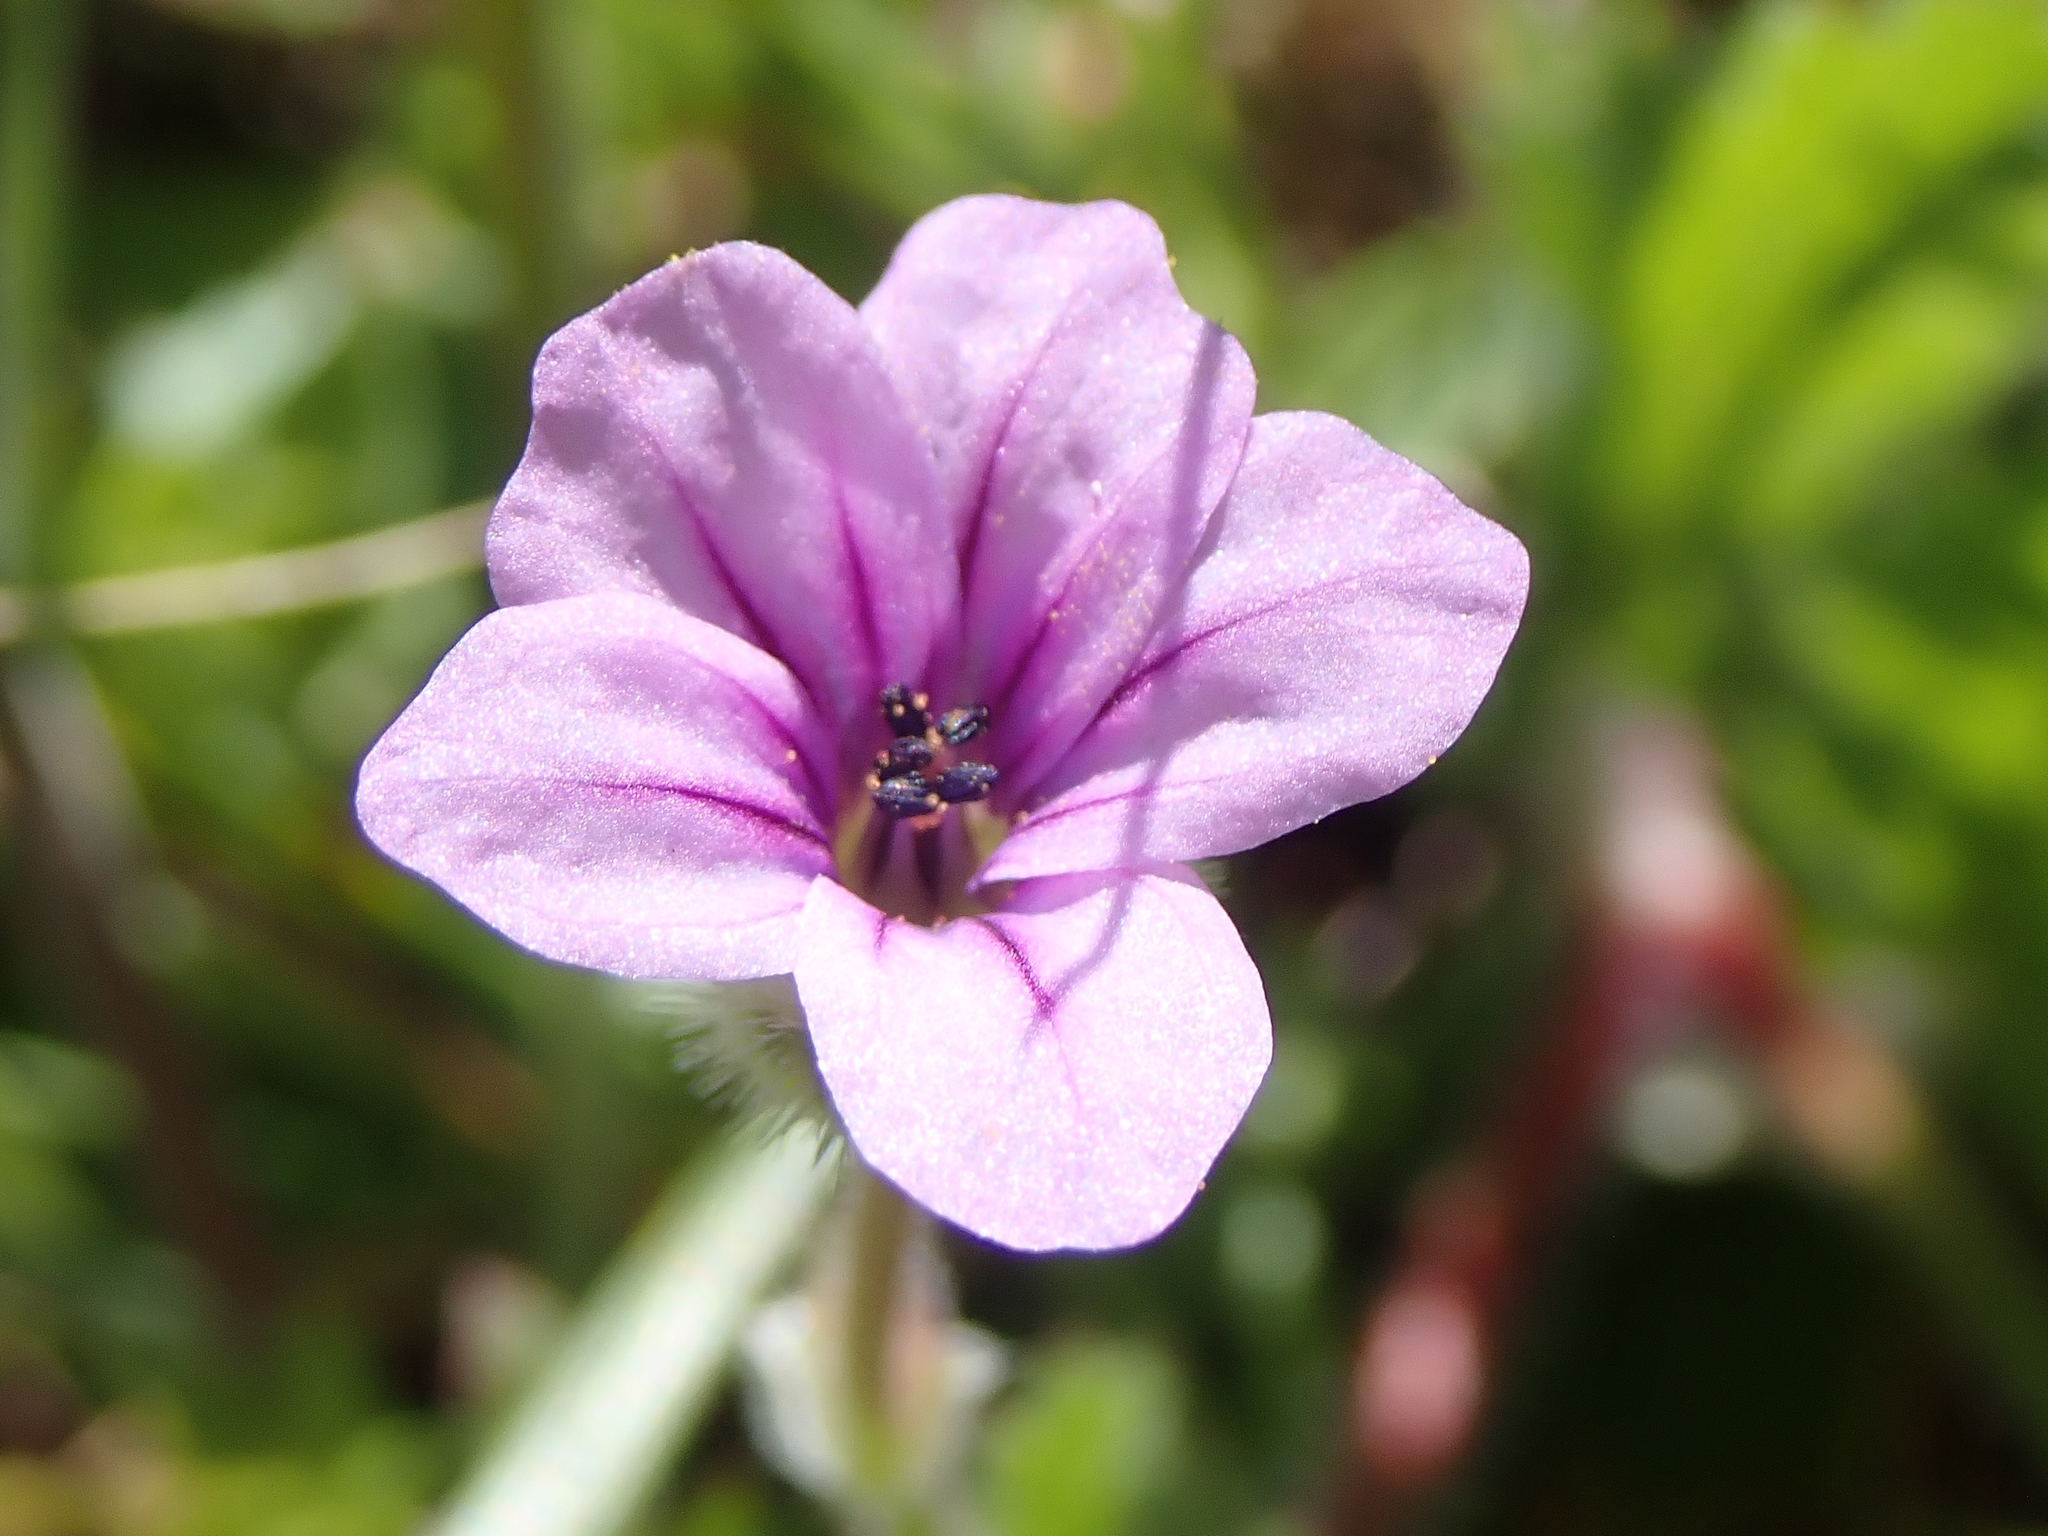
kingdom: Plantae
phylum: Tracheophyta
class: Magnoliopsida
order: Geraniales
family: Geraniaceae
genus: Erodium
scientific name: Erodium botrys
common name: Mediterranean stork's-bill
